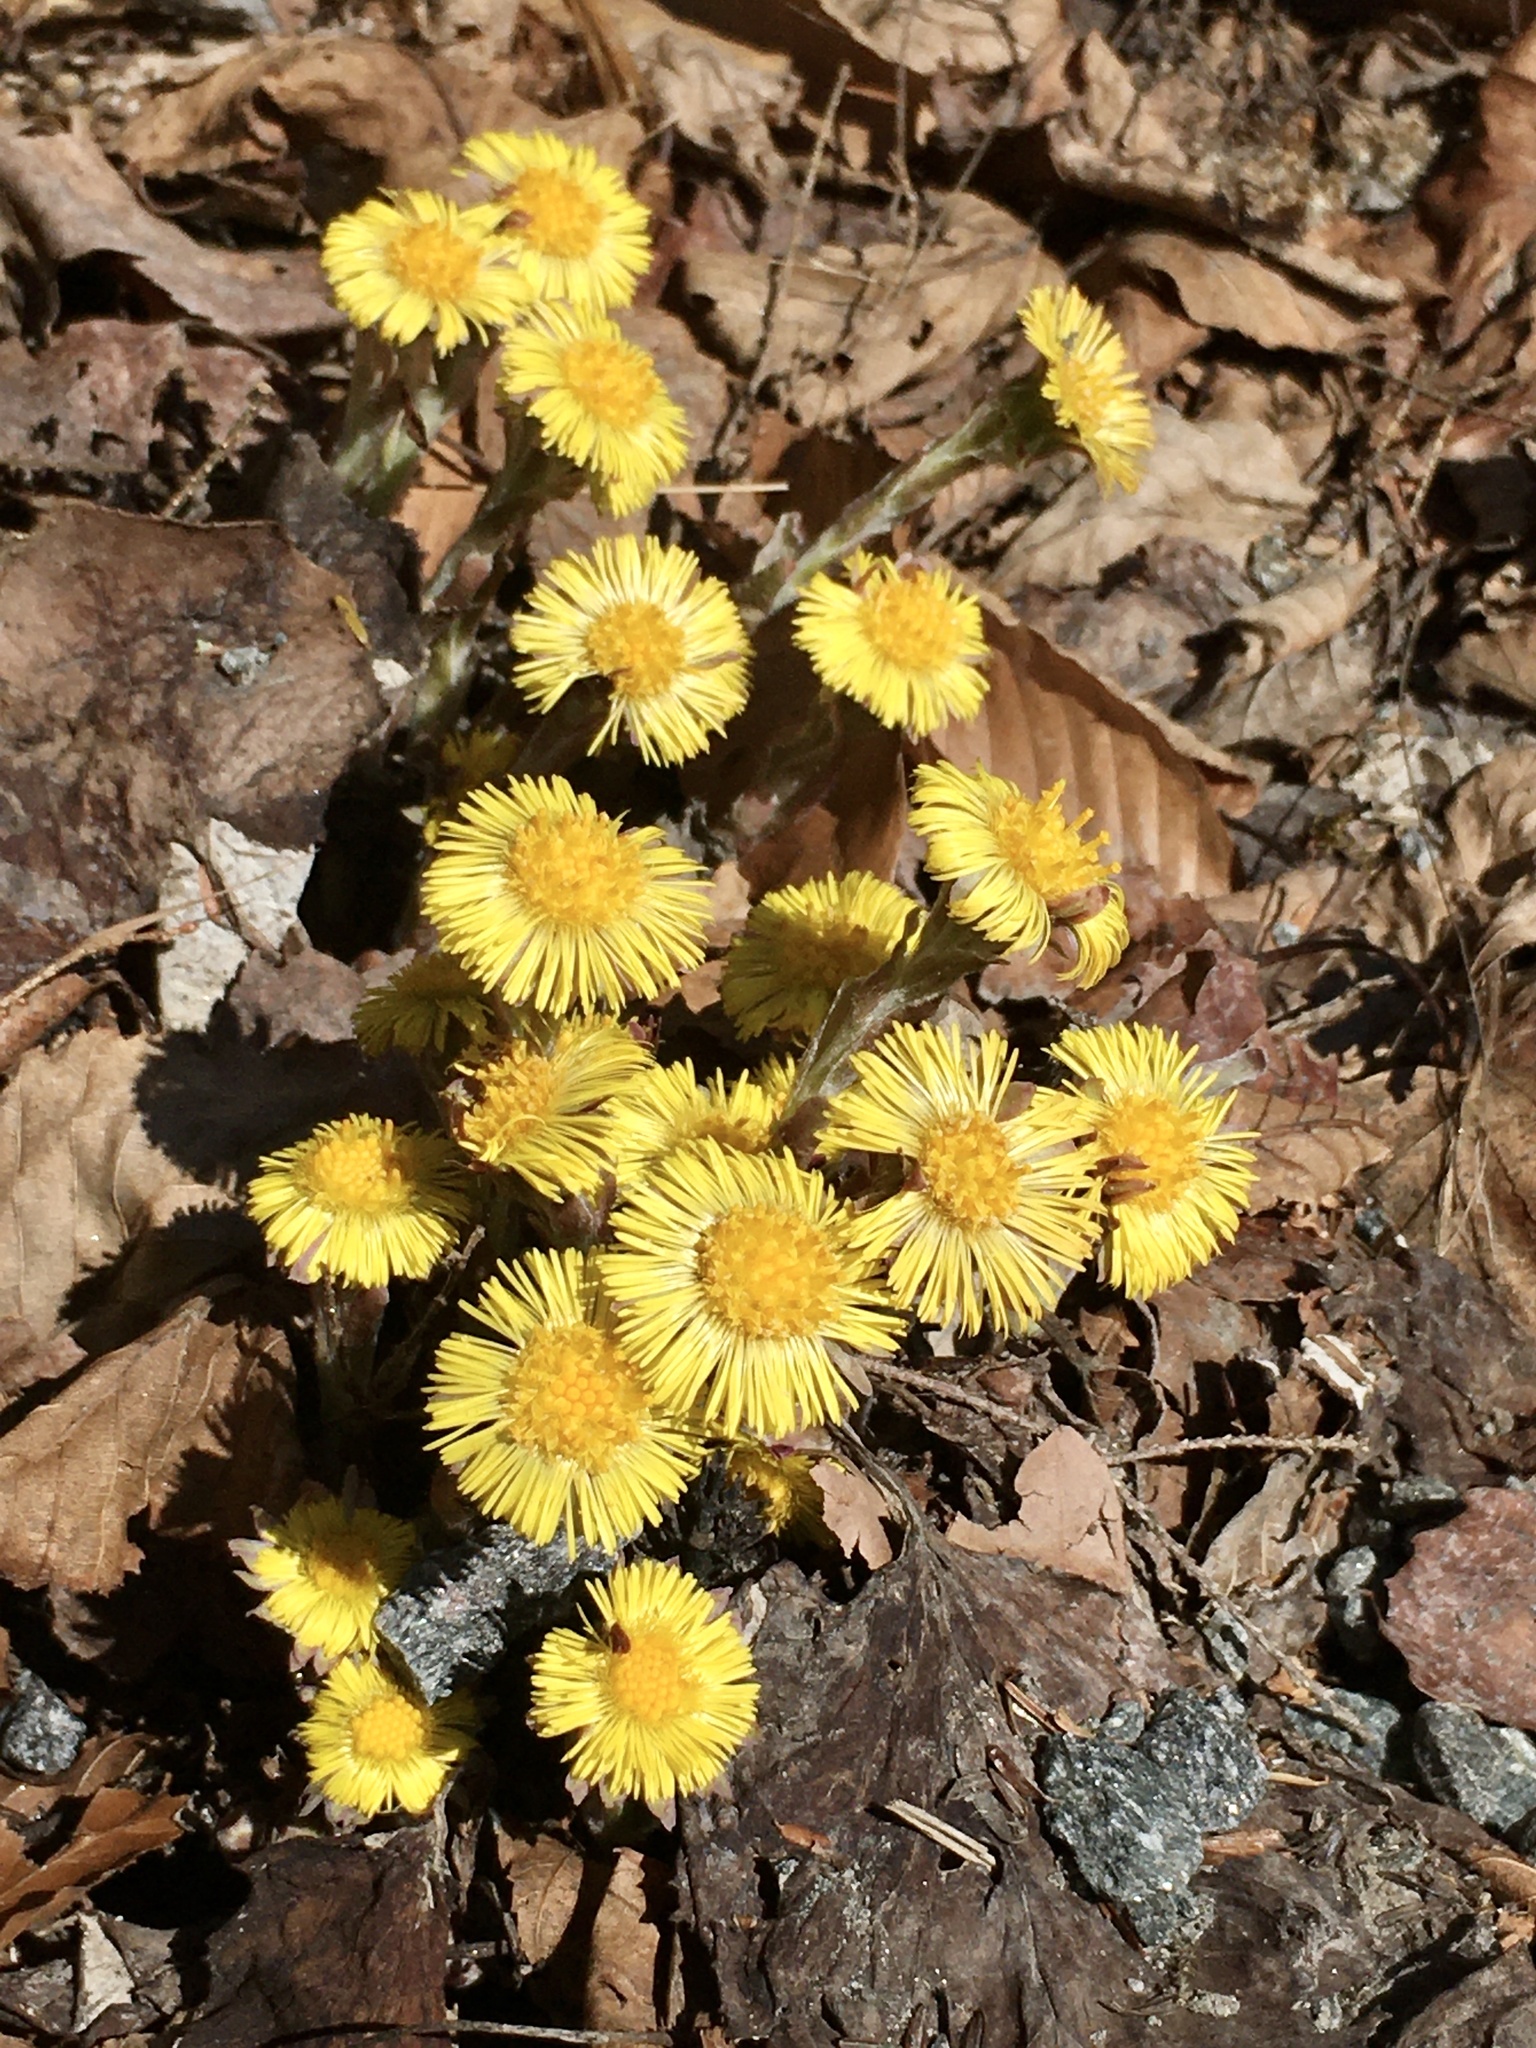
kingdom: Plantae
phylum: Tracheophyta
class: Magnoliopsida
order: Asterales
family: Asteraceae
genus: Tussilago
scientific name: Tussilago farfara
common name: Coltsfoot
